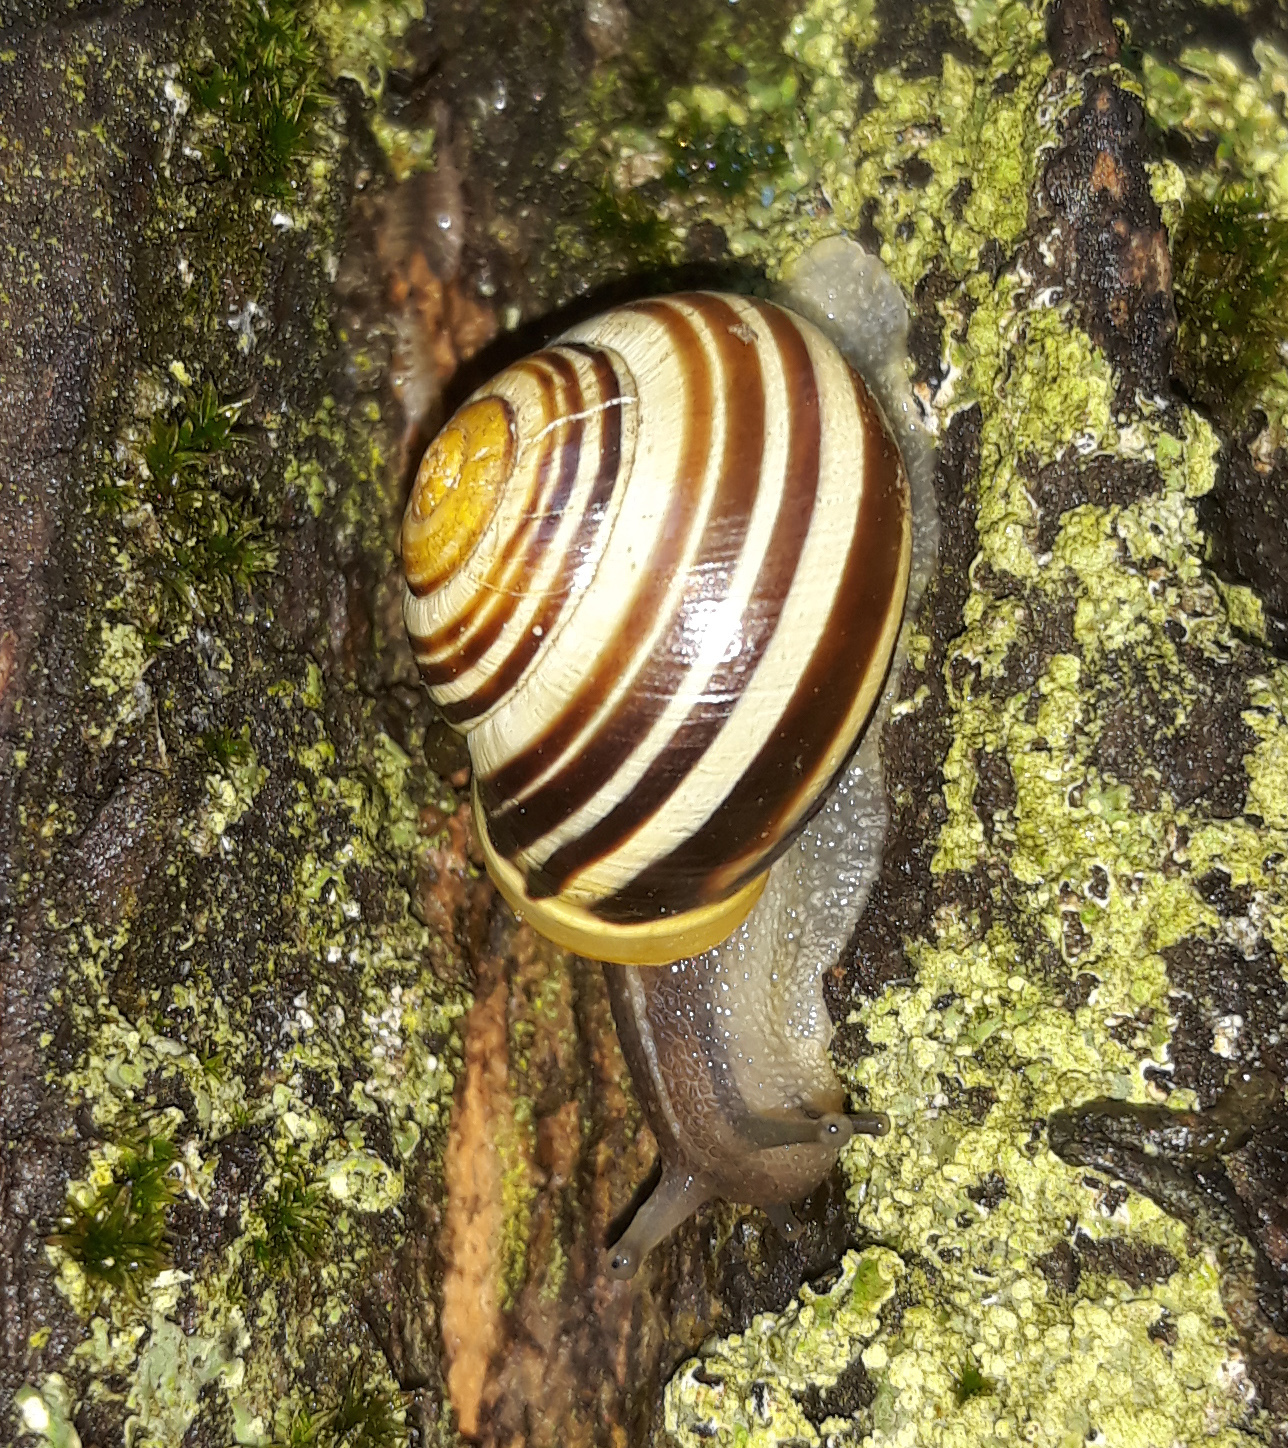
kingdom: Animalia
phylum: Mollusca
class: Gastropoda
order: Stylommatophora
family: Helicidae
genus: Cepaea
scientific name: Cepaea hortensis
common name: White-lip gardensnail
